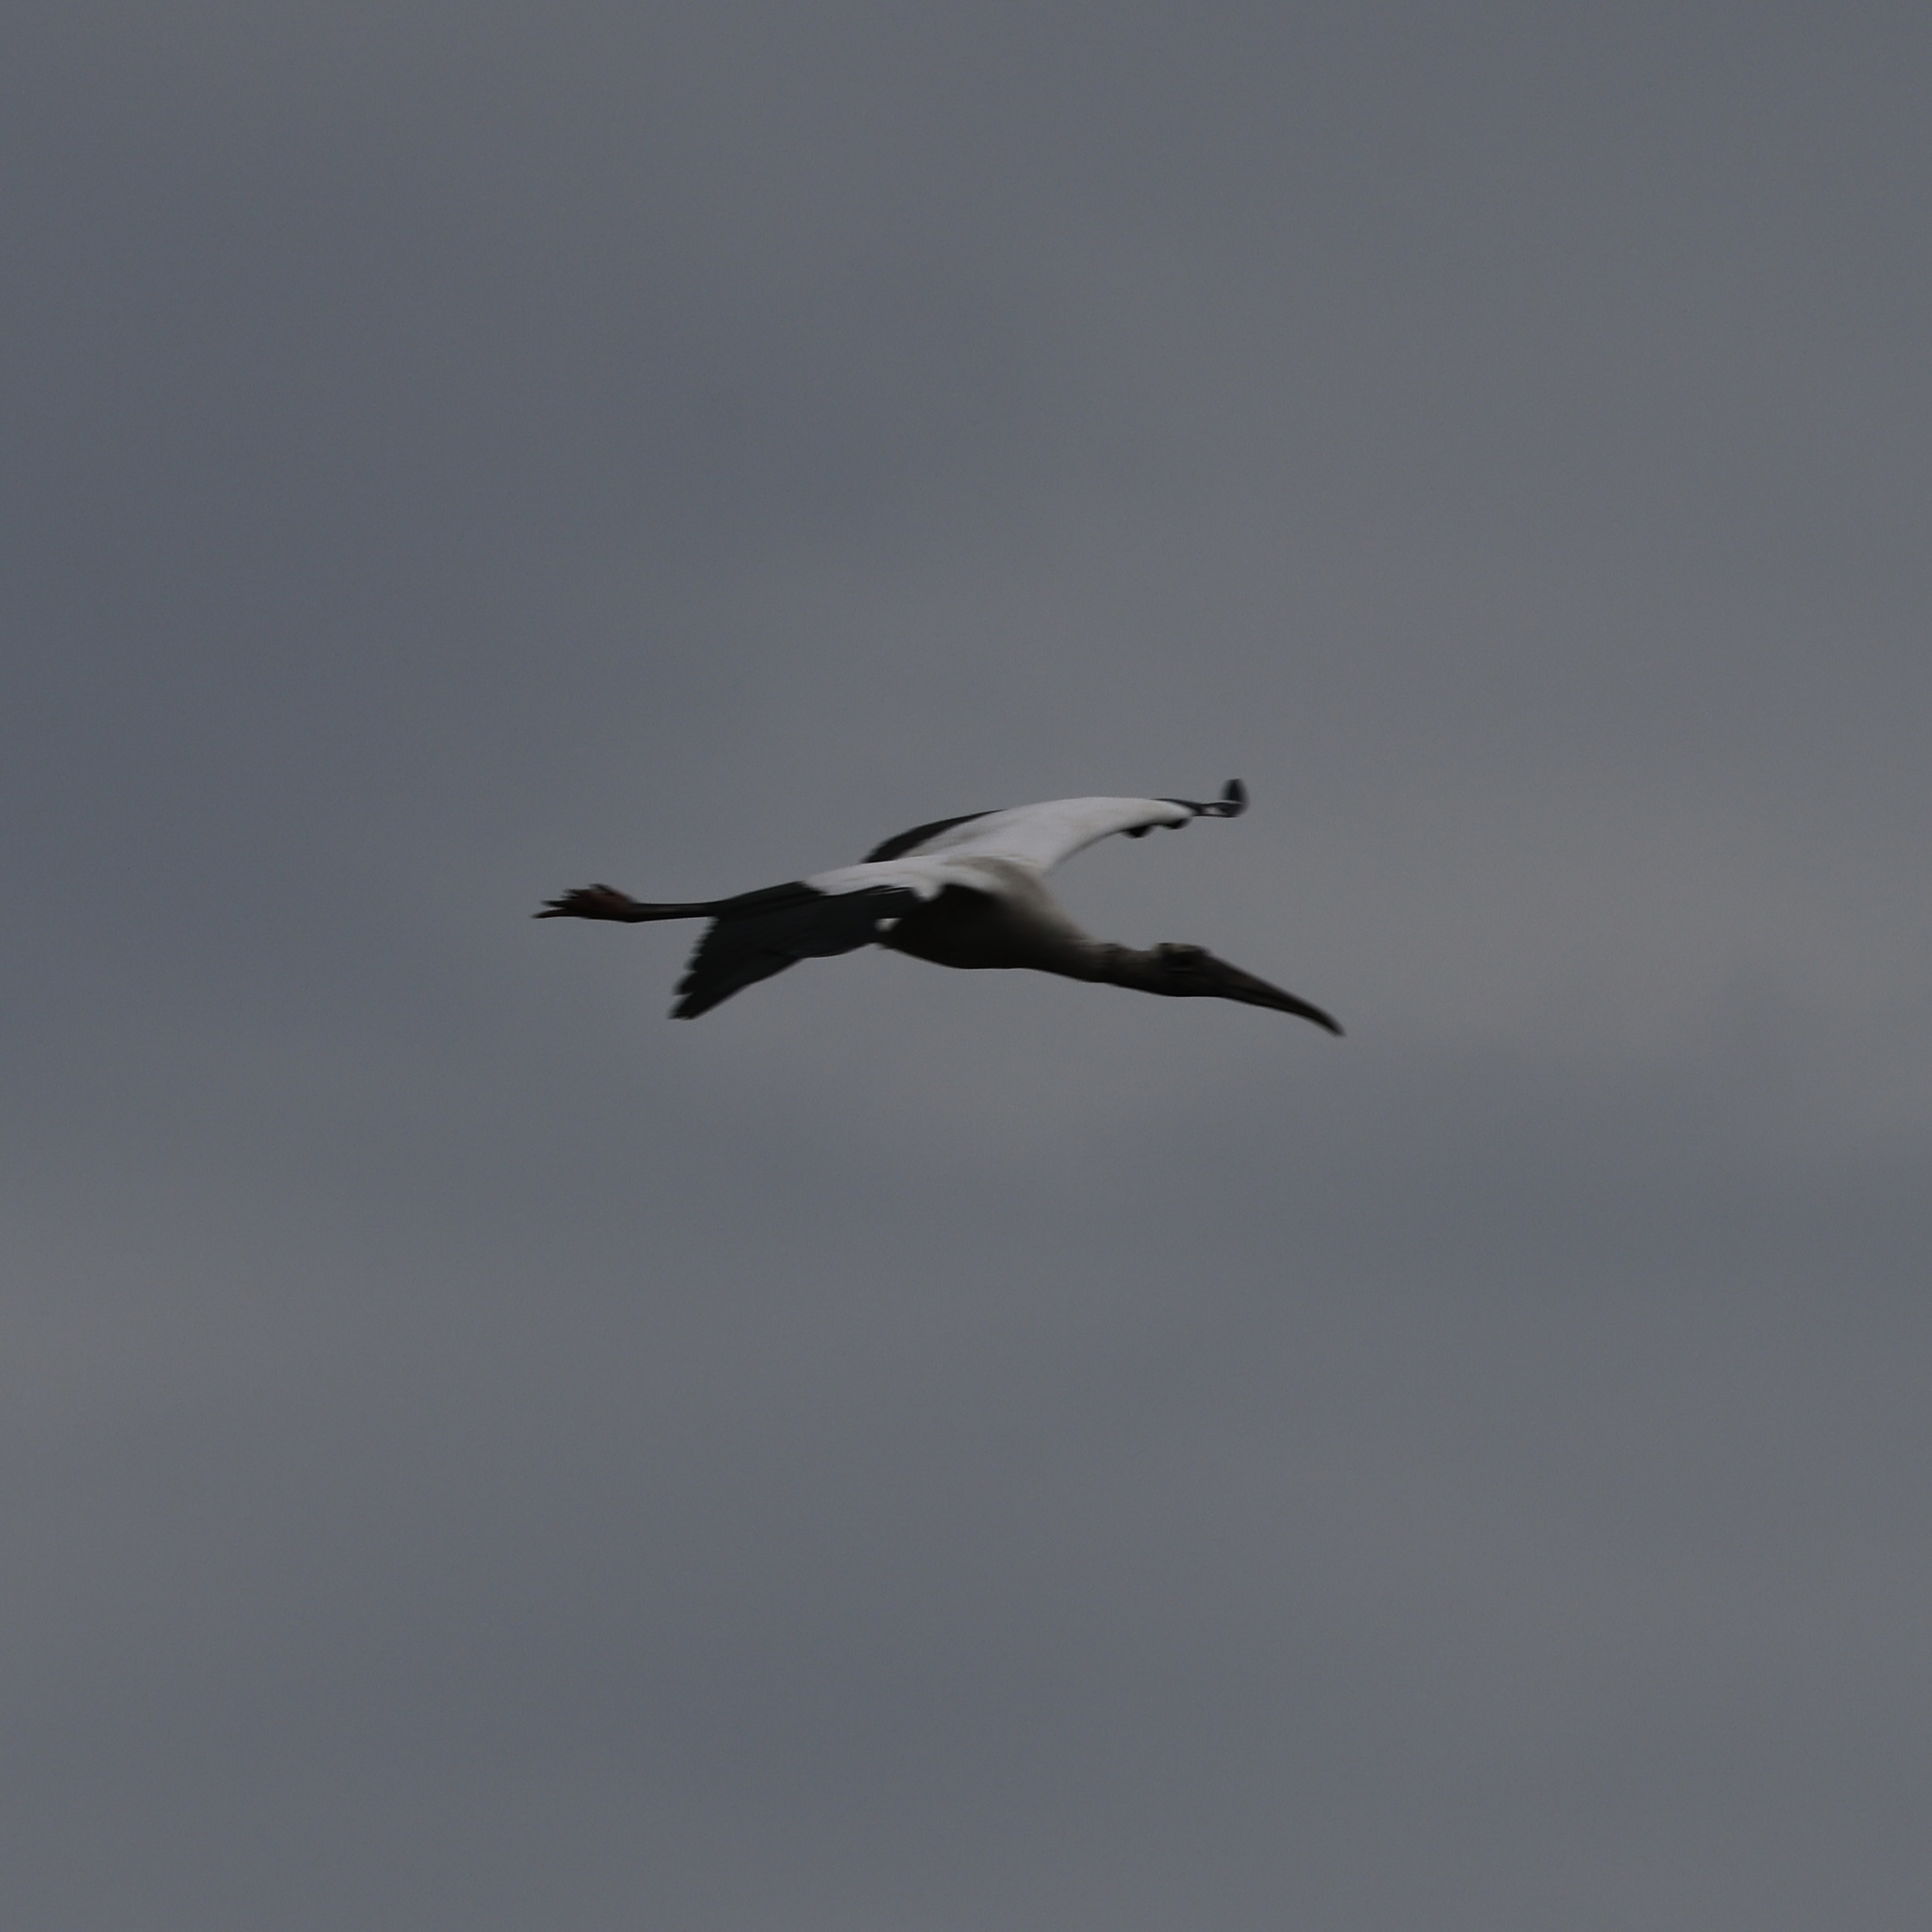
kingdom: Animalia
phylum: Chordata
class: Aves
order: Ciconiiformes
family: Ciconiidae
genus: Mycteria
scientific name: Mycteria americana
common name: Wood stork
